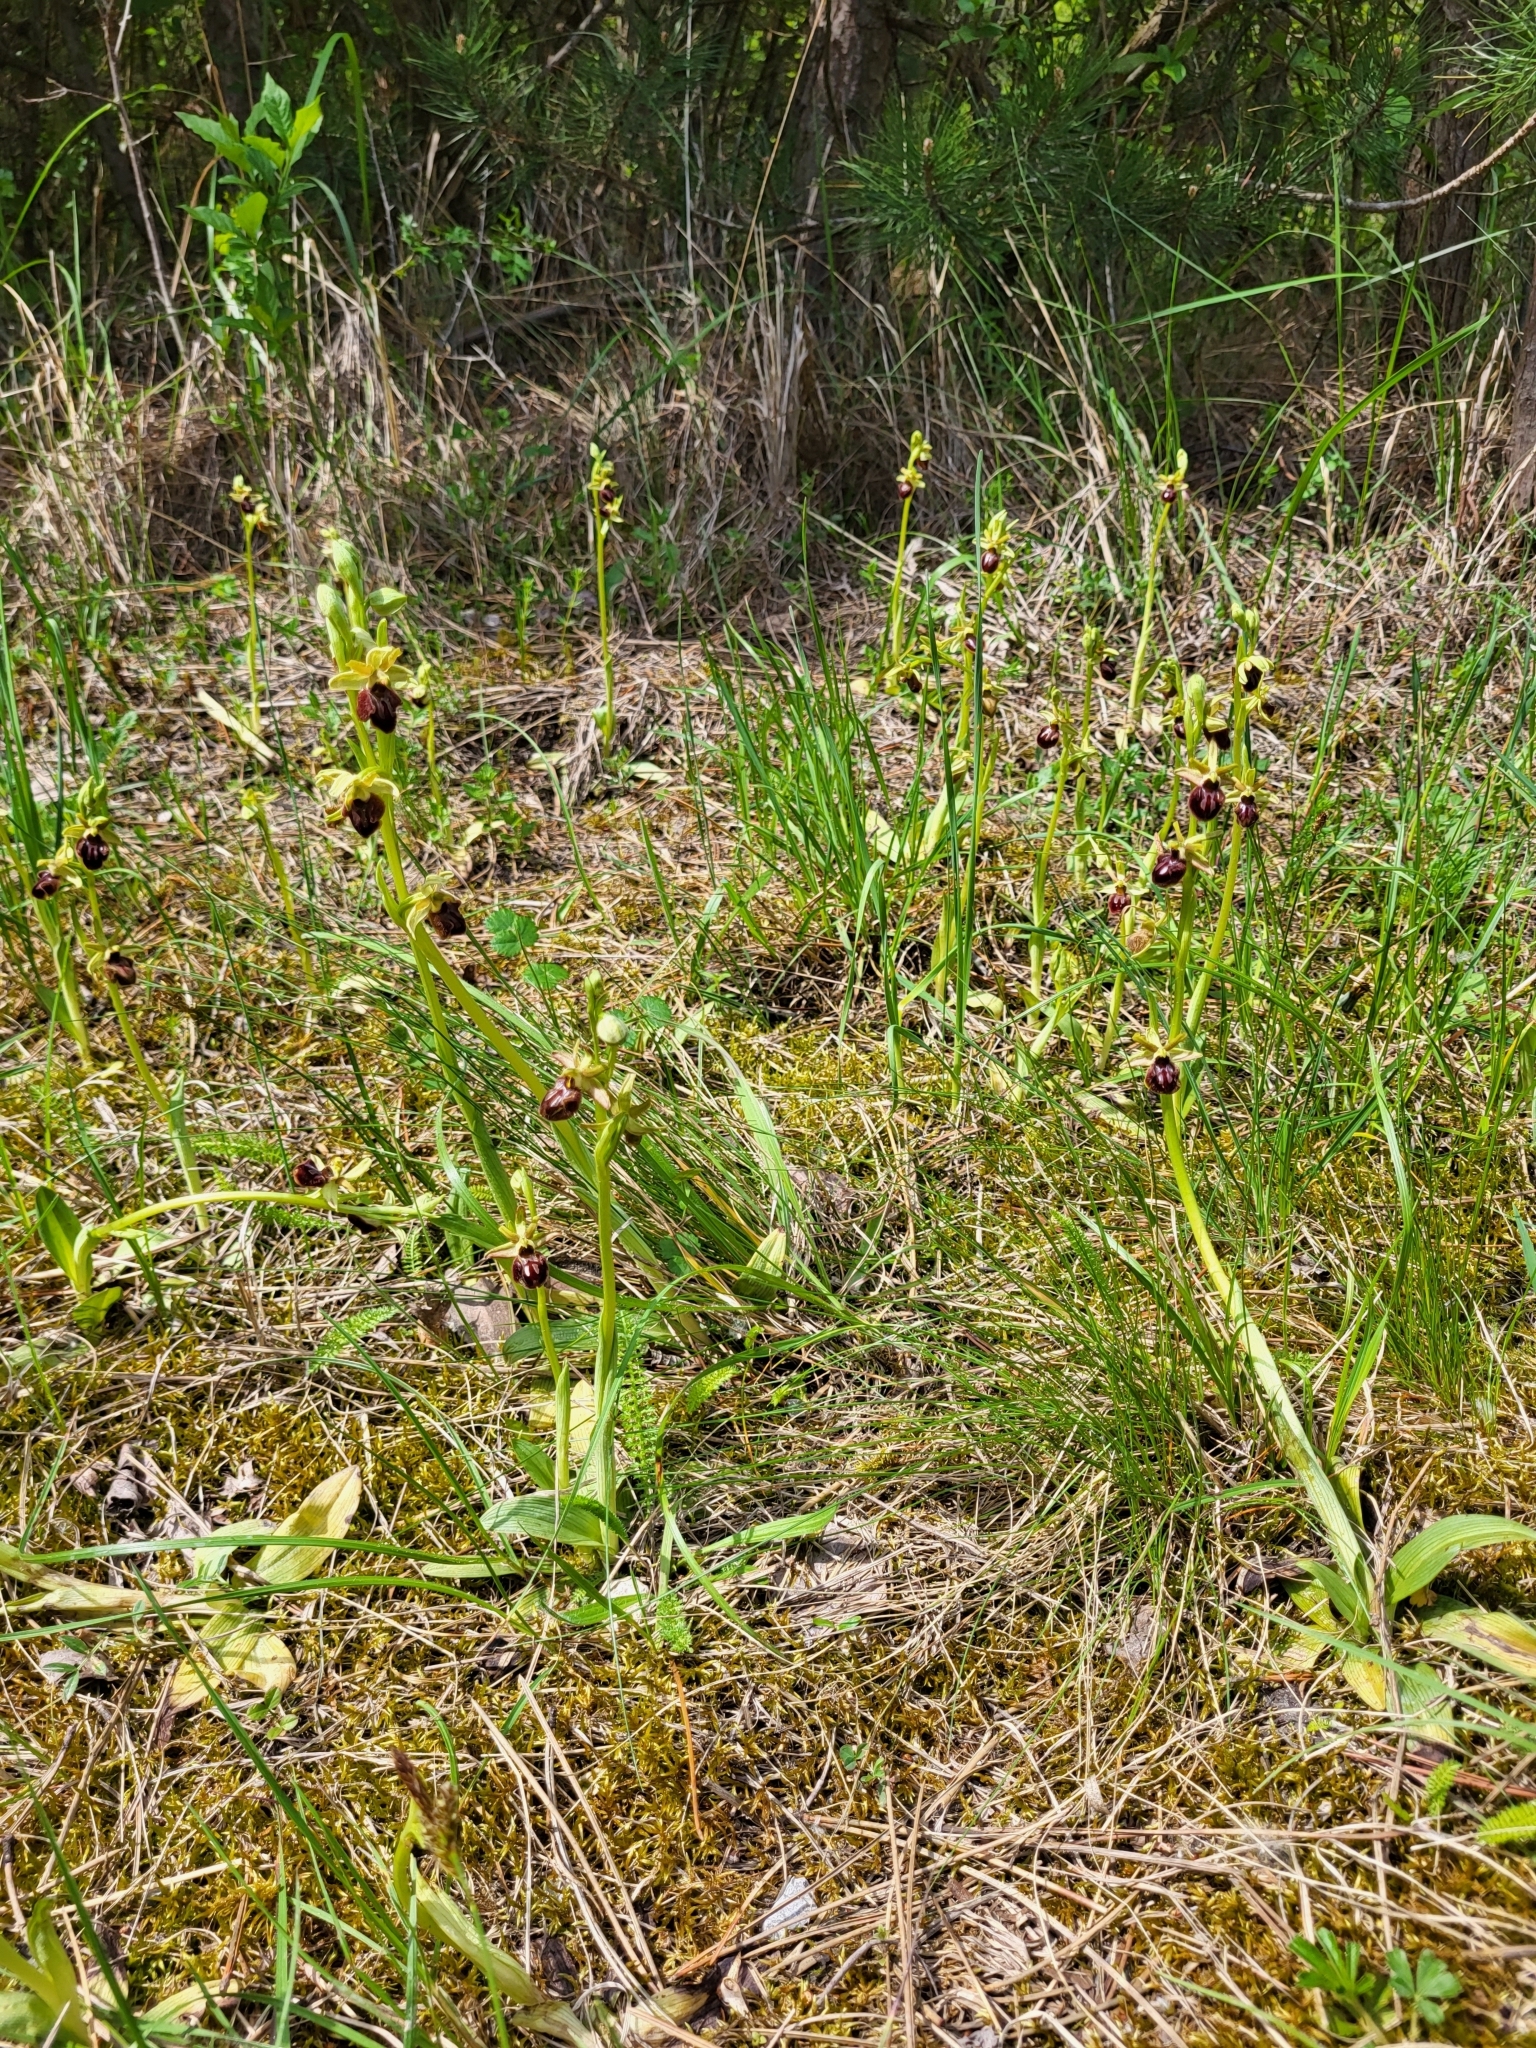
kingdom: Plantae
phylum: Tracheophyta
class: Liliopsida
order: Asparagales
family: Orchidaceae
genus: Ophrys
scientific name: Ophrys sphegodes
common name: Early spider-orchid
